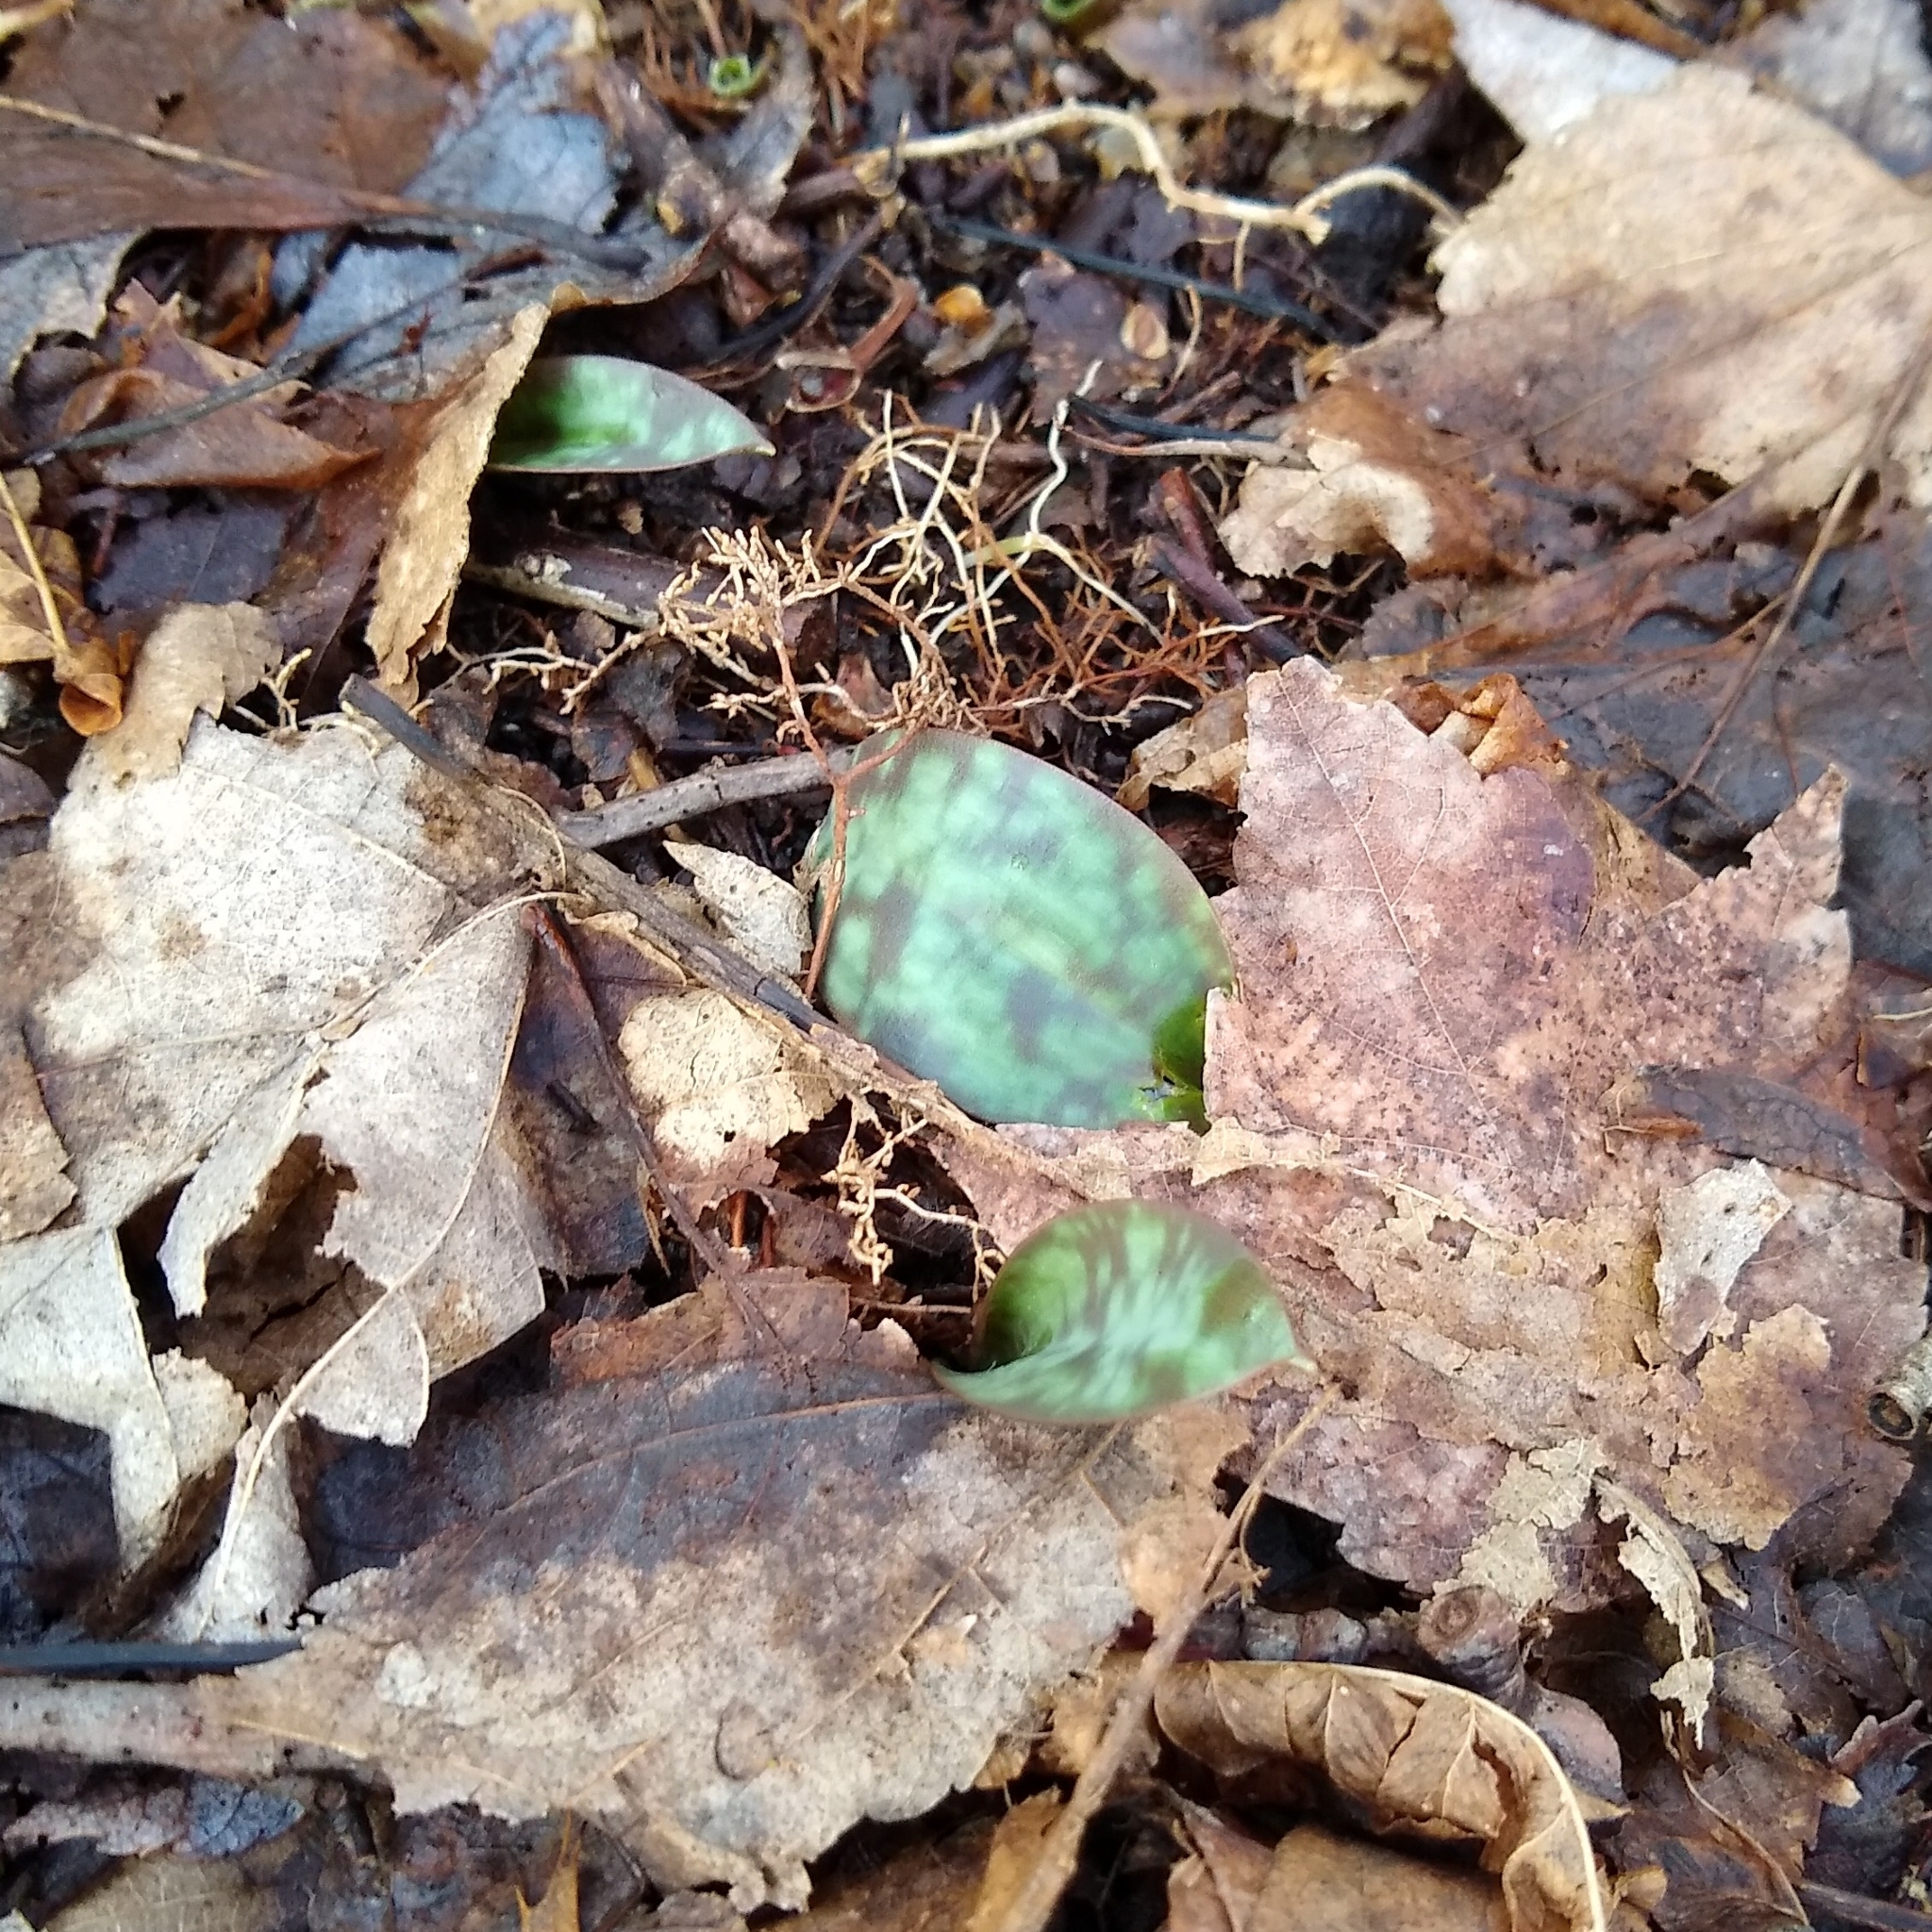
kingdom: Plantae
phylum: Tracheophyta
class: Liliopsida
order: Liliales
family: Liliaceae
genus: Erythronium
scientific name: Erythronium americanum
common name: Yellow adder's-tongue
